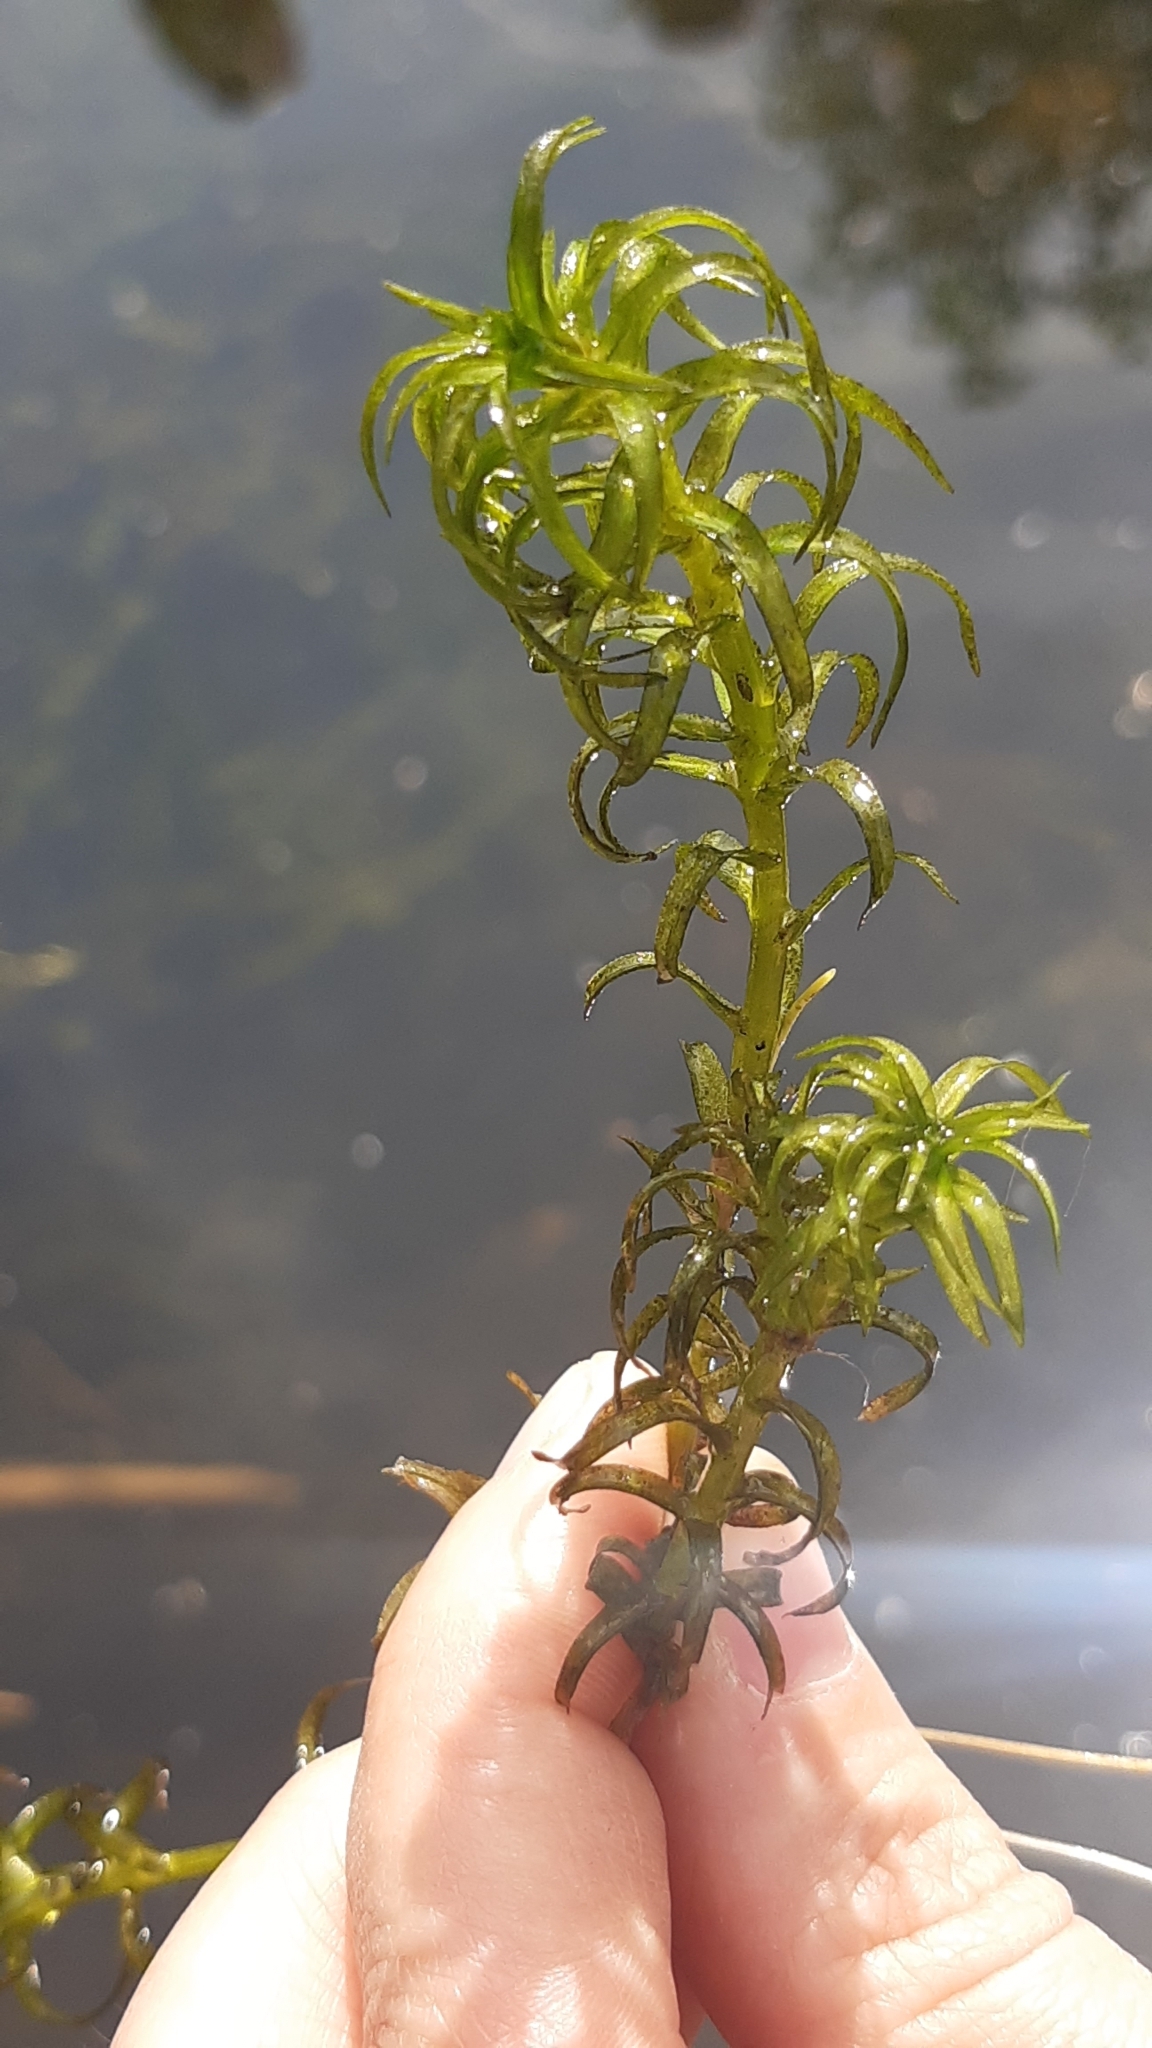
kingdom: Plantae
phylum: Tracheophyta
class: Liliopsida
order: Alismatales
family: Hydrocharitaceae
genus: Lagarosiphon
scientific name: Lagarosiphon major
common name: Curly waterweed
